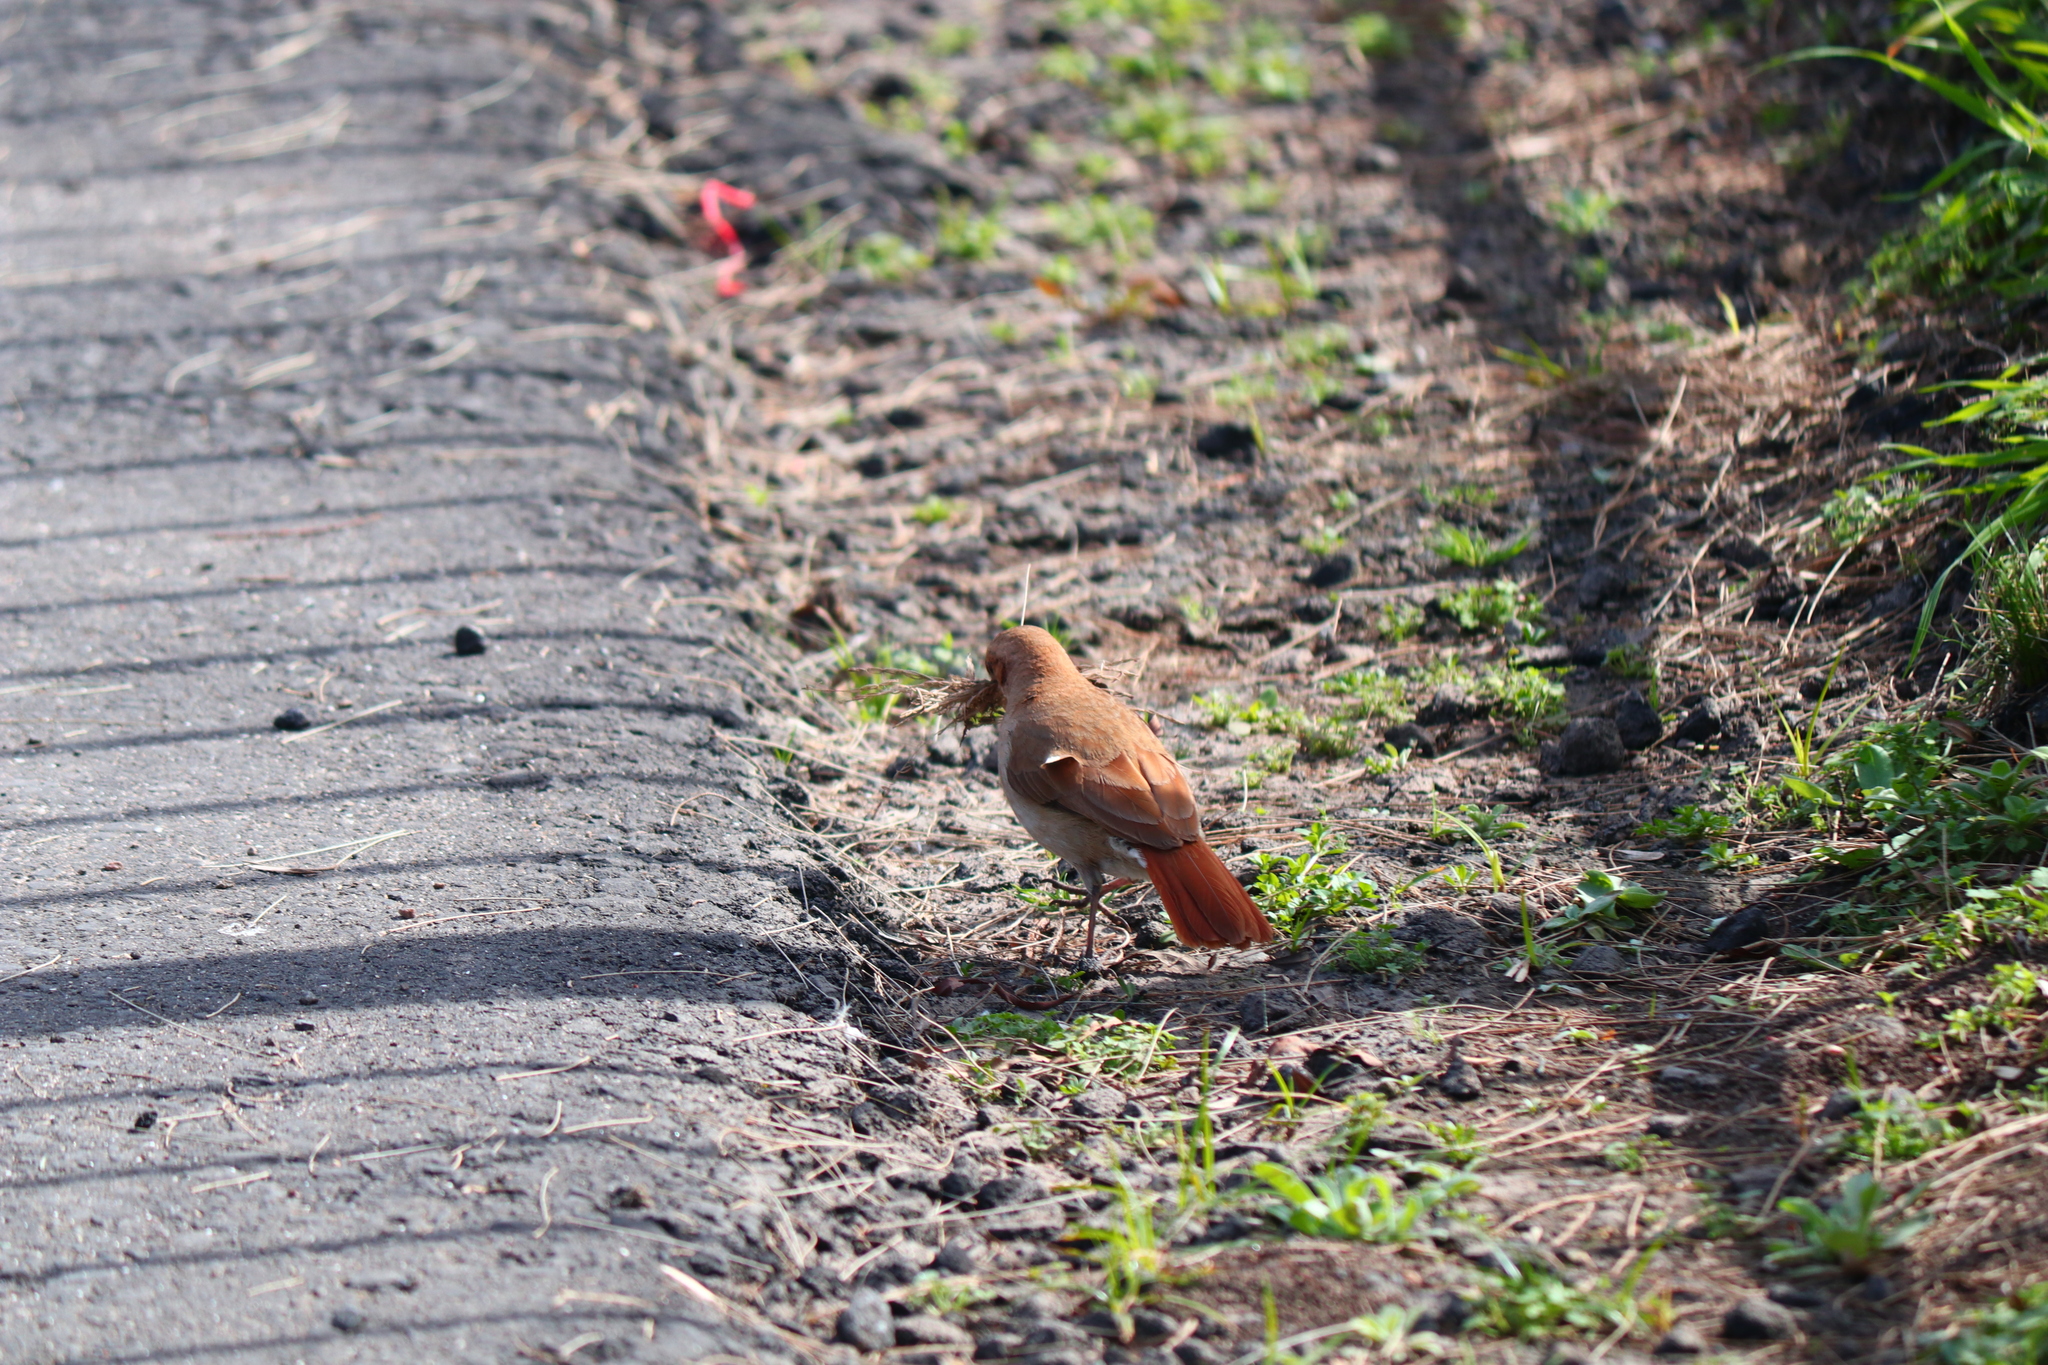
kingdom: Animalia
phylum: Chordata
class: Aves
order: Passeriformes
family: Furnariidae
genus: Furnarius
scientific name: Furnarius rufus
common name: Rufous hornero
